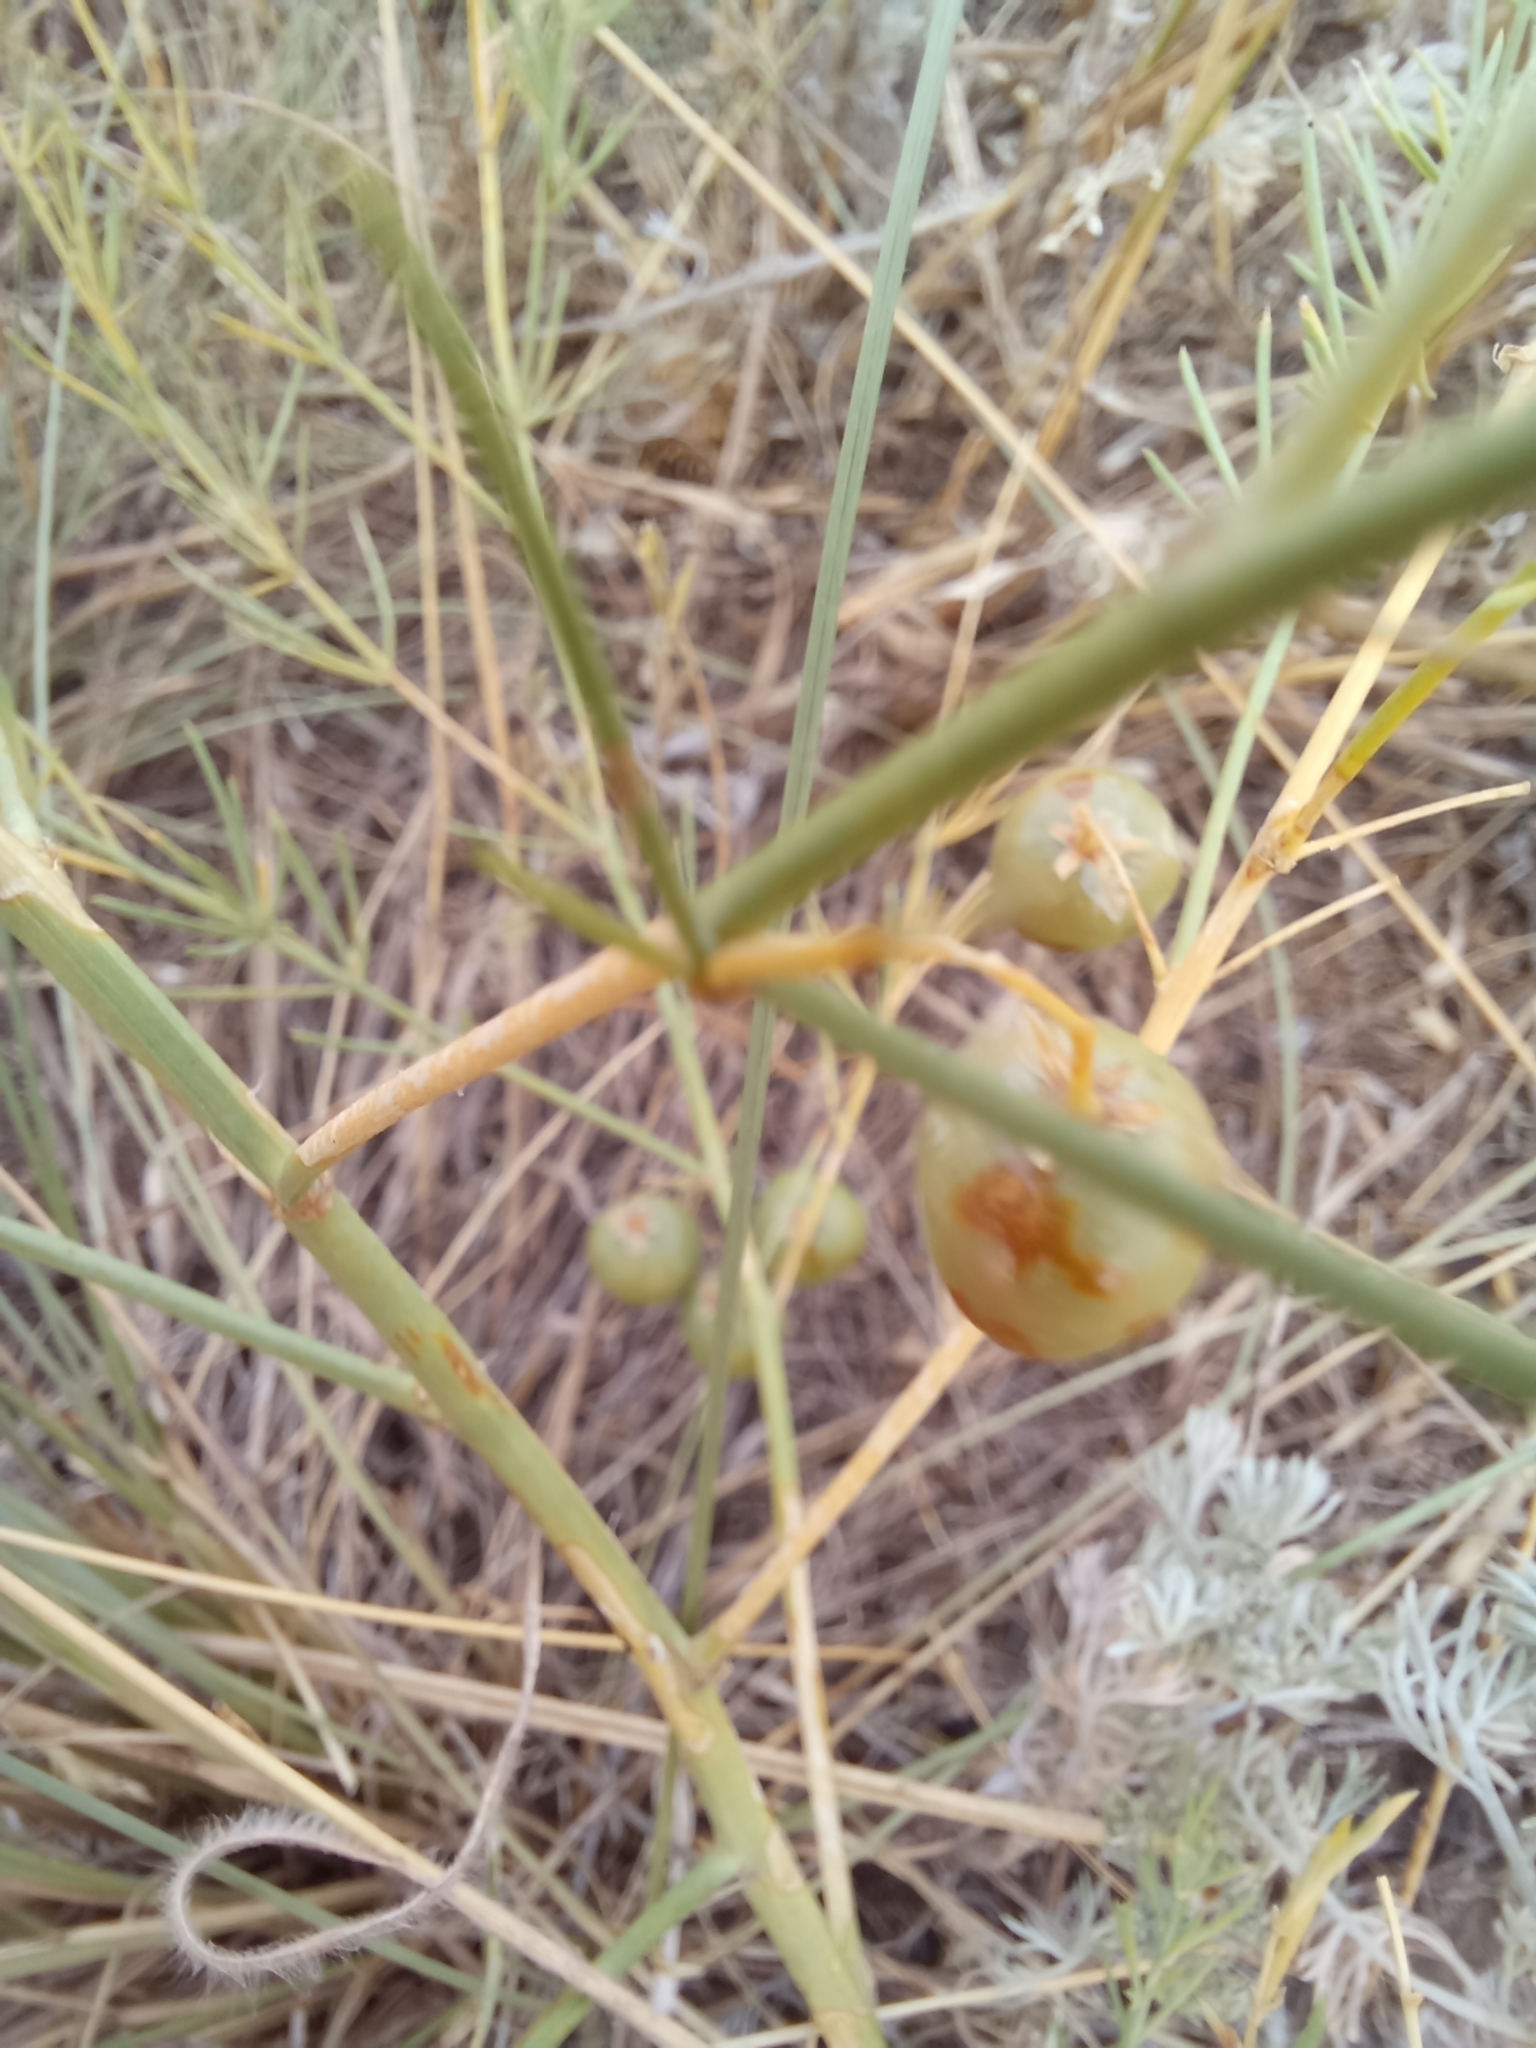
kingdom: Plantae
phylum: Tracheophyta
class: Liliopsida
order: Asparagales
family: Asparagaceae
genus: Asparagus
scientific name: Asparagus officinalis
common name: Garden asparagus
